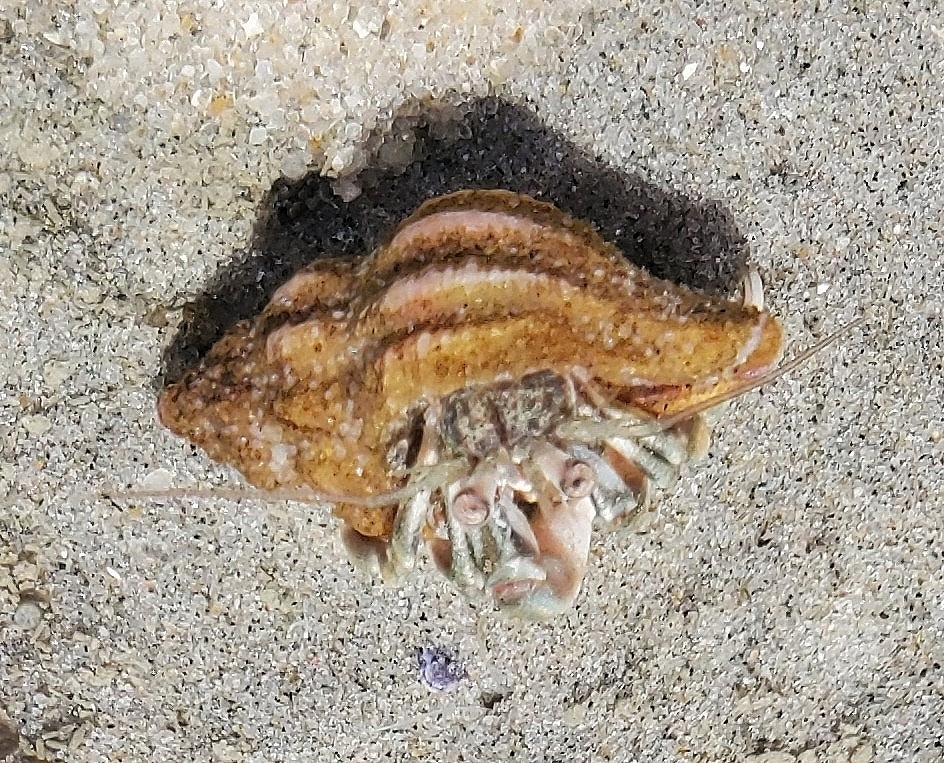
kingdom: Animalia
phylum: Arthropoda
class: Malacostraca
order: Decapoda
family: Paguridae
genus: Pagurus
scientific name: Pagurus longicarpus
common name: Long-armed hermit crab
